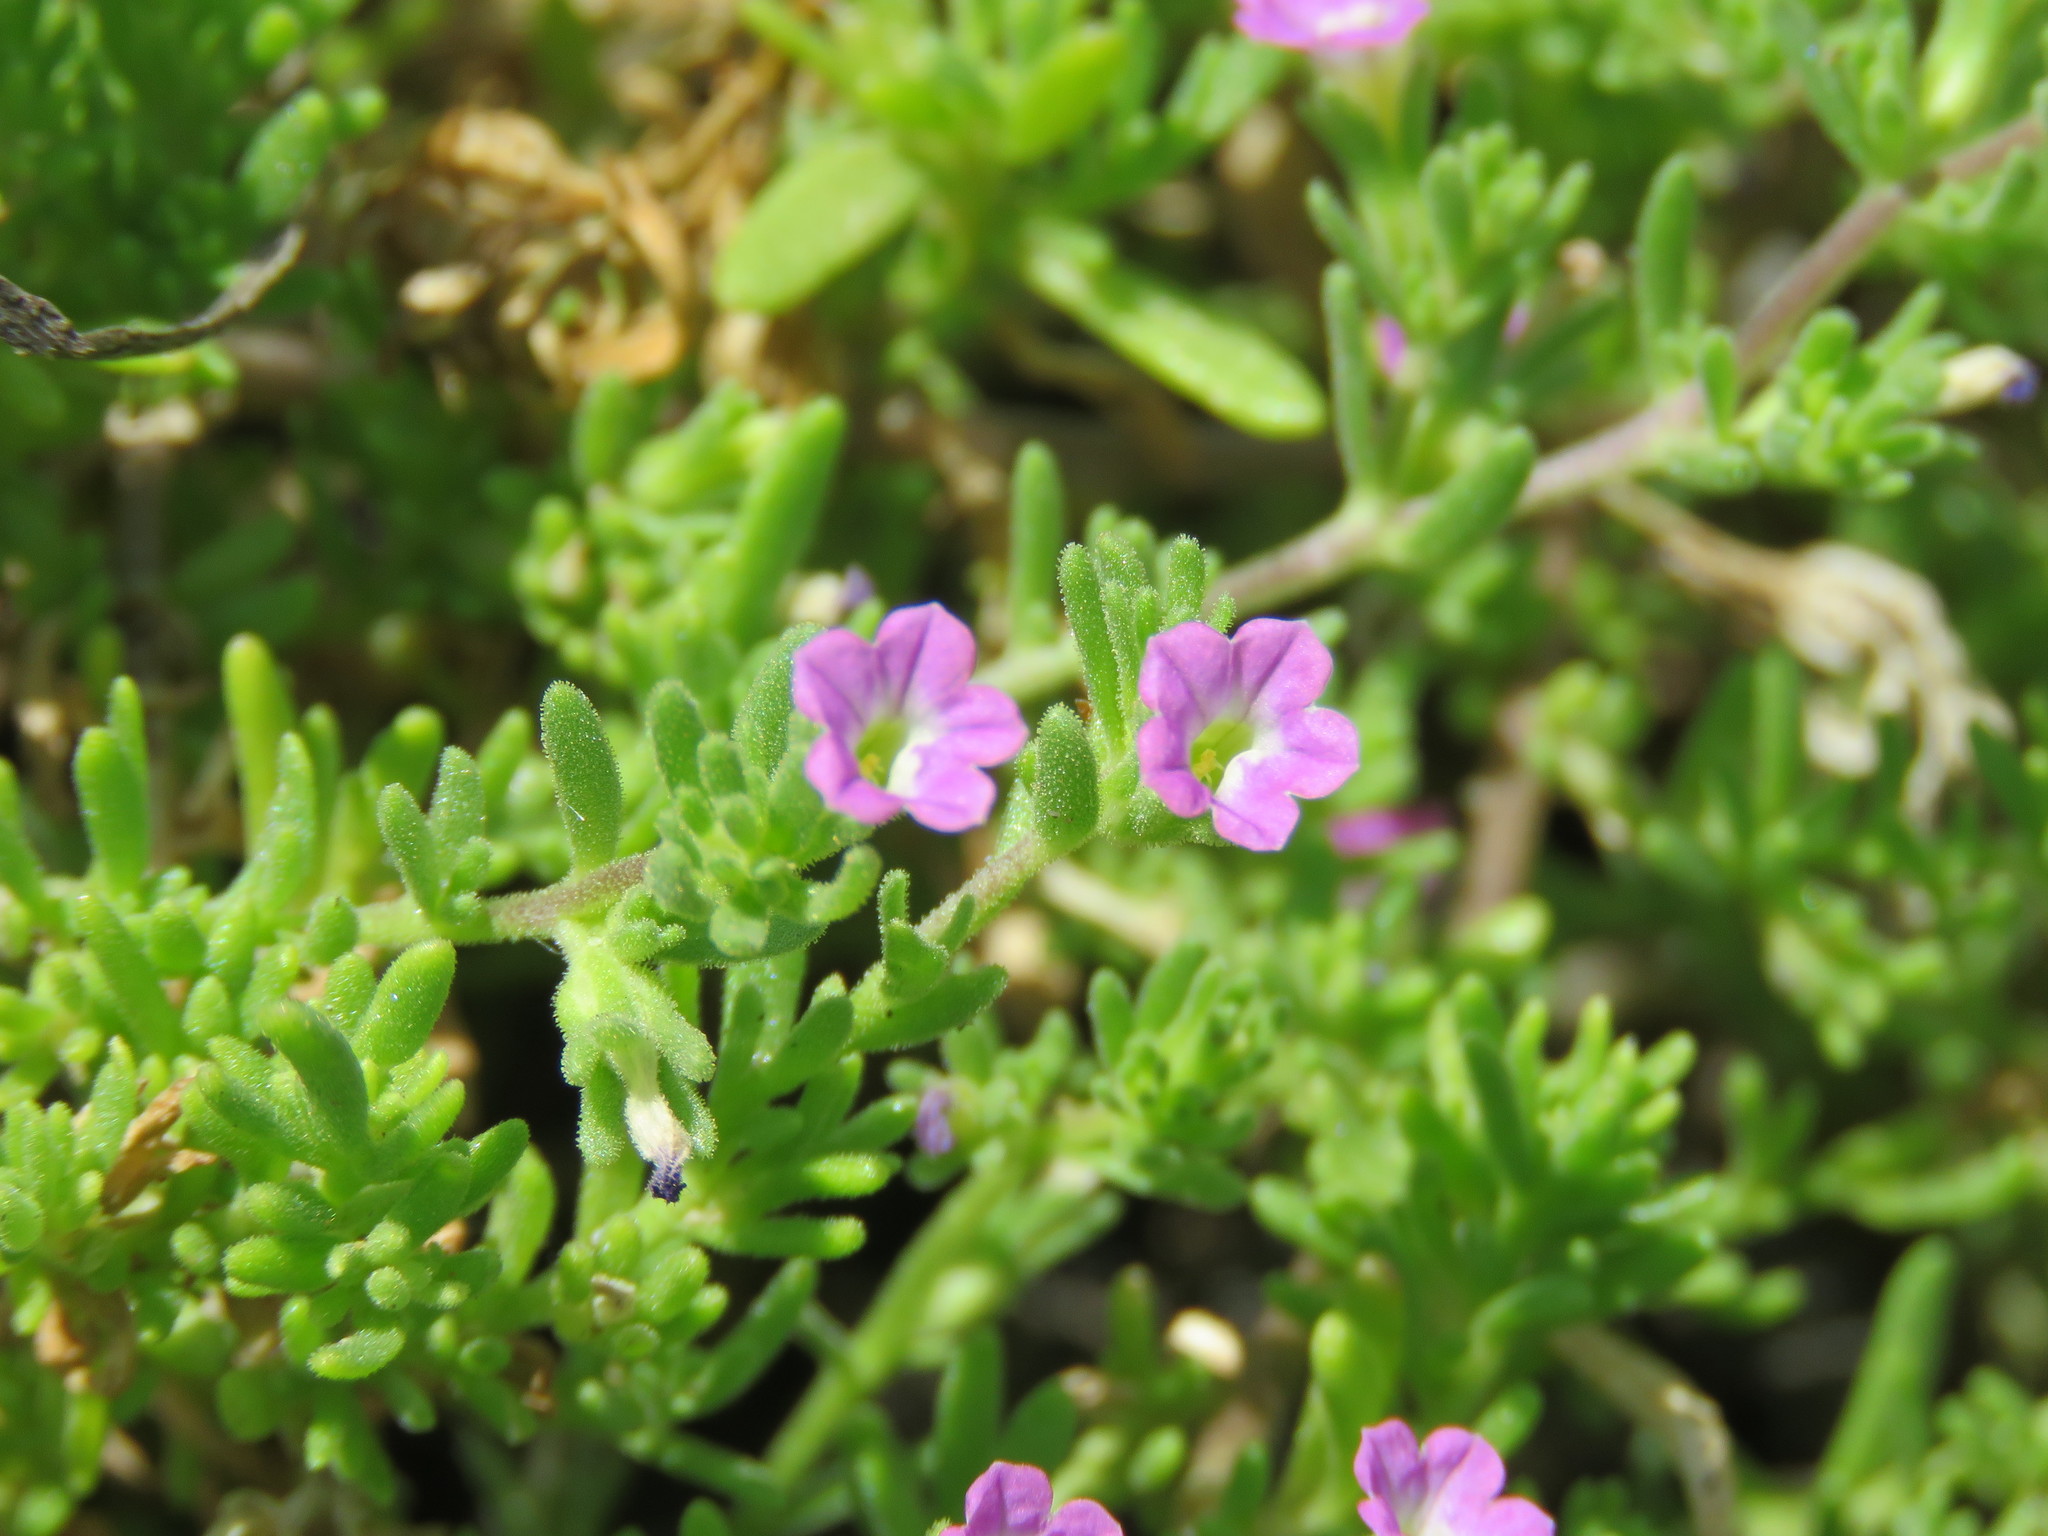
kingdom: Plantae
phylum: Tracheophyta
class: Magnoliopsida
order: Boraginales
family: Namaceae
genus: Nama
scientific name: Nama hispida
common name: Bristly nama
